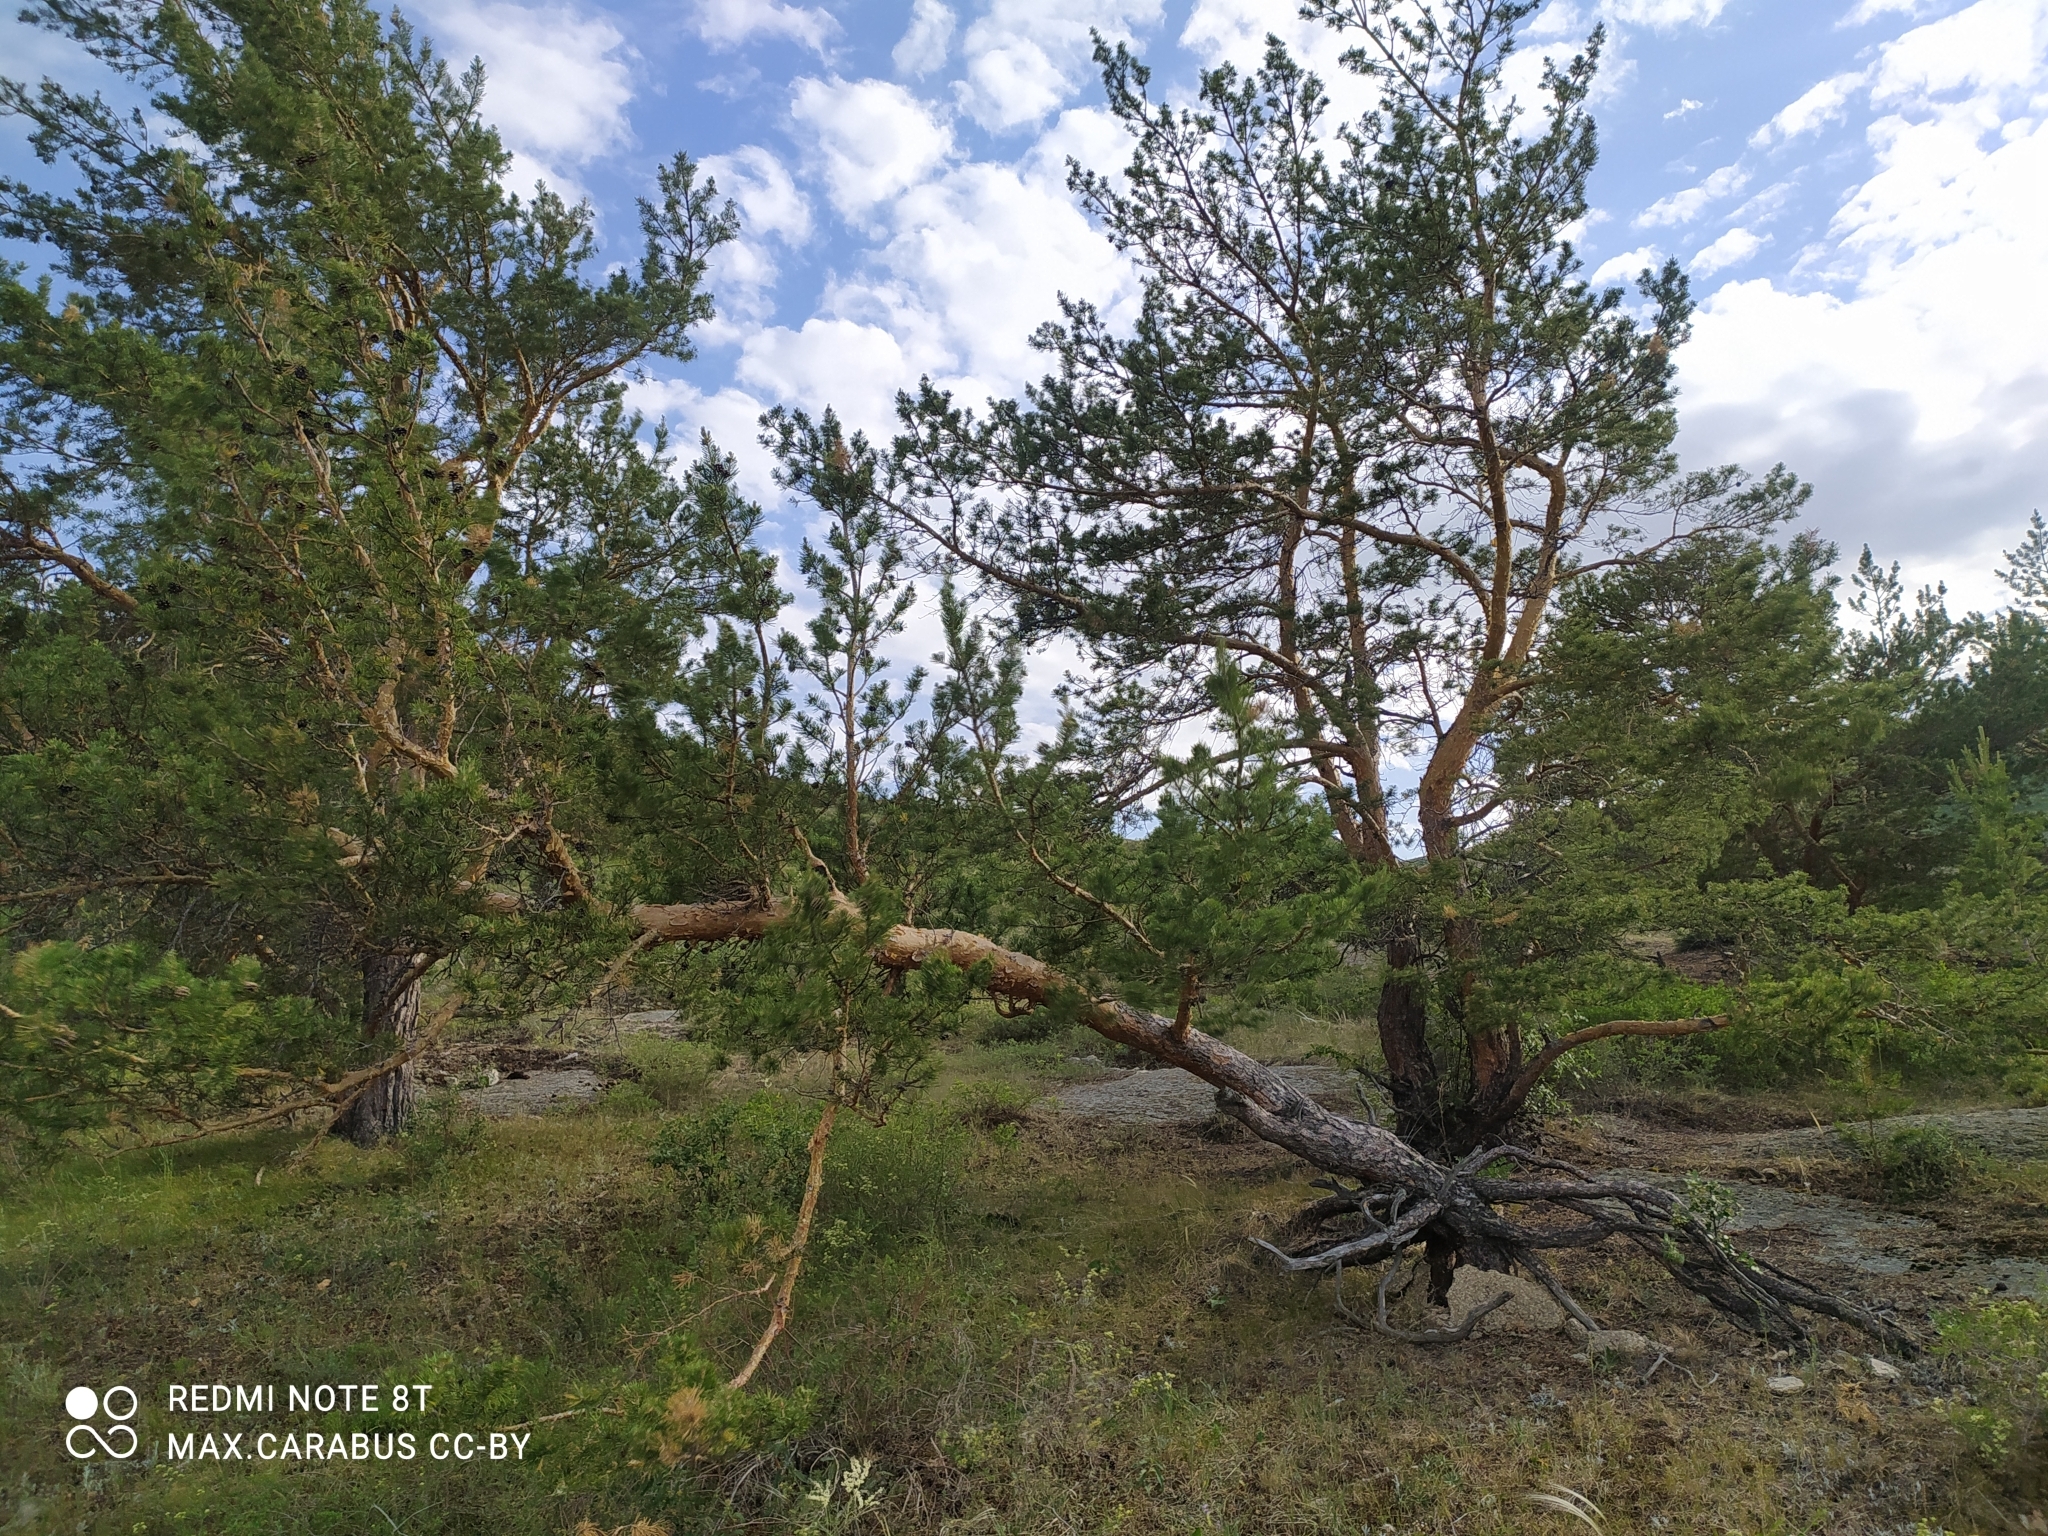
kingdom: Plantae
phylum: Tracheophyta
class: Pinopsida
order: Pinales
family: Pinaceae
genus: Pinus
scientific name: Pinus sylvestris
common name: Scots pine
